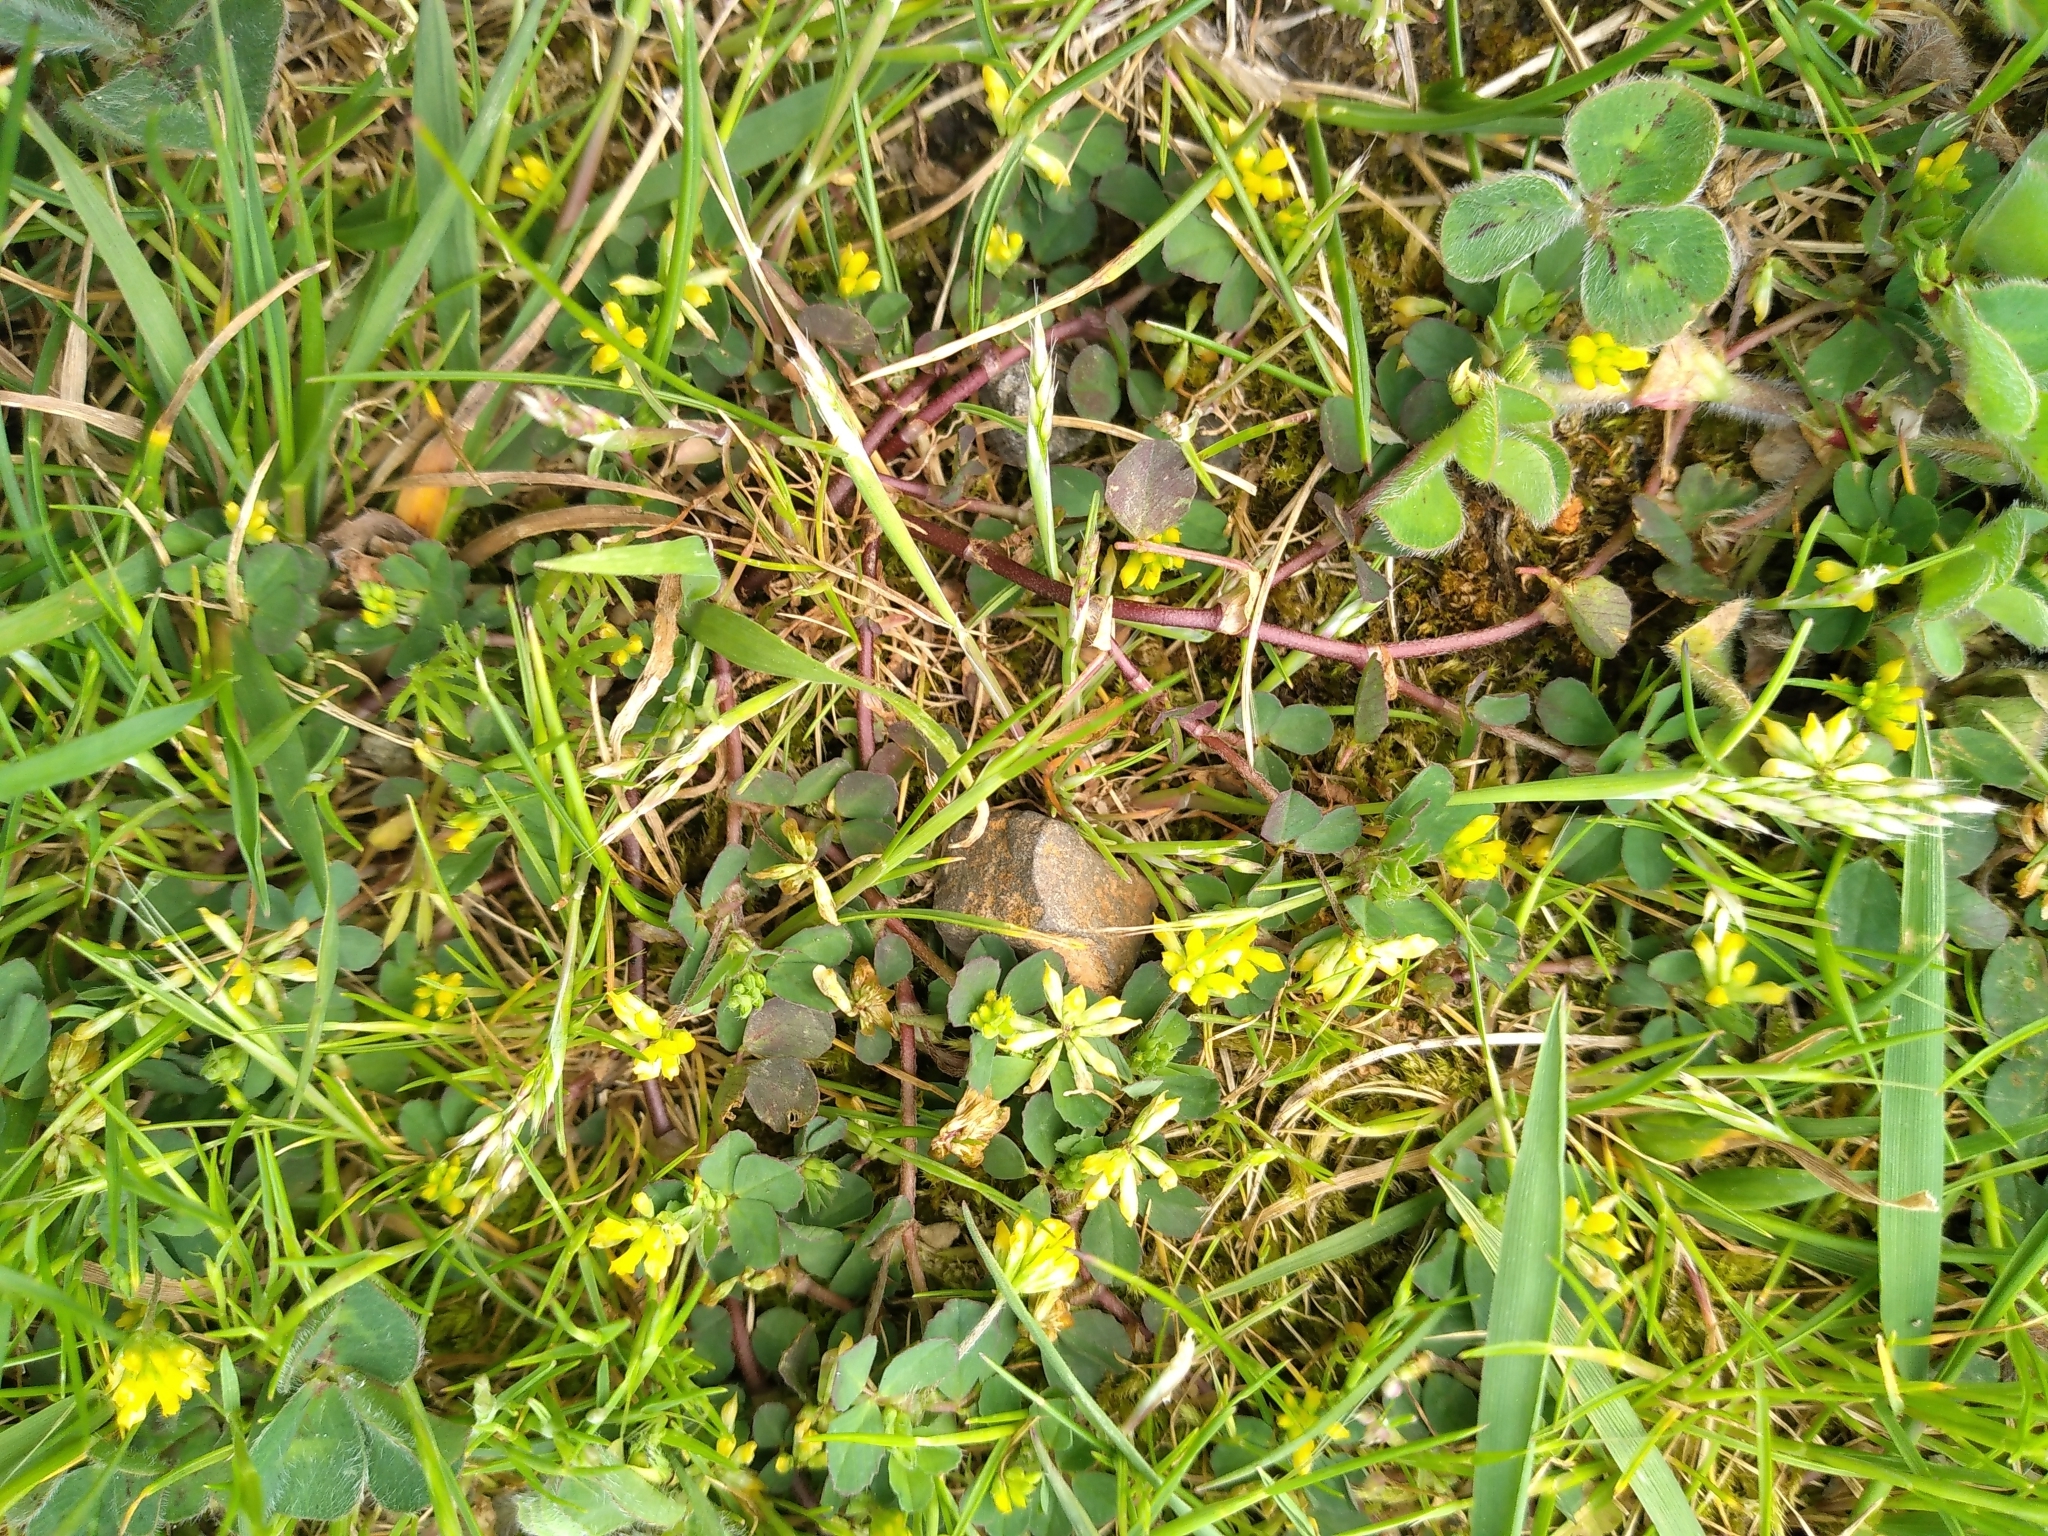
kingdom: Plantae
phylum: Tracheophyta
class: Magnoliopsida
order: Fabales
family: Fabaceae
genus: Trifolium
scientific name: Trifolium dubium
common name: Suckling clover
